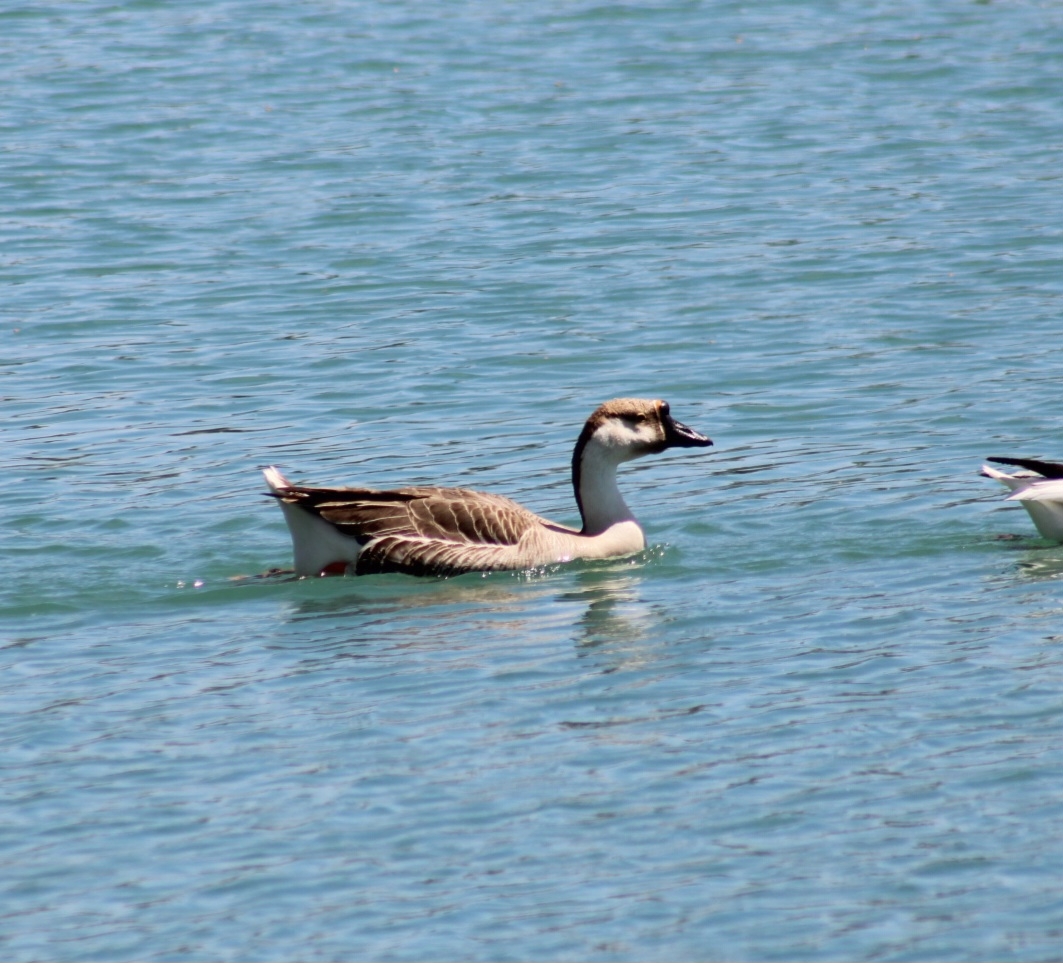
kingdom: Animalia
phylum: Chordata
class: Aves
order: Anseriformes
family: Anatidae
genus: Anser
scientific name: Anser cygnoides
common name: Swan goose
